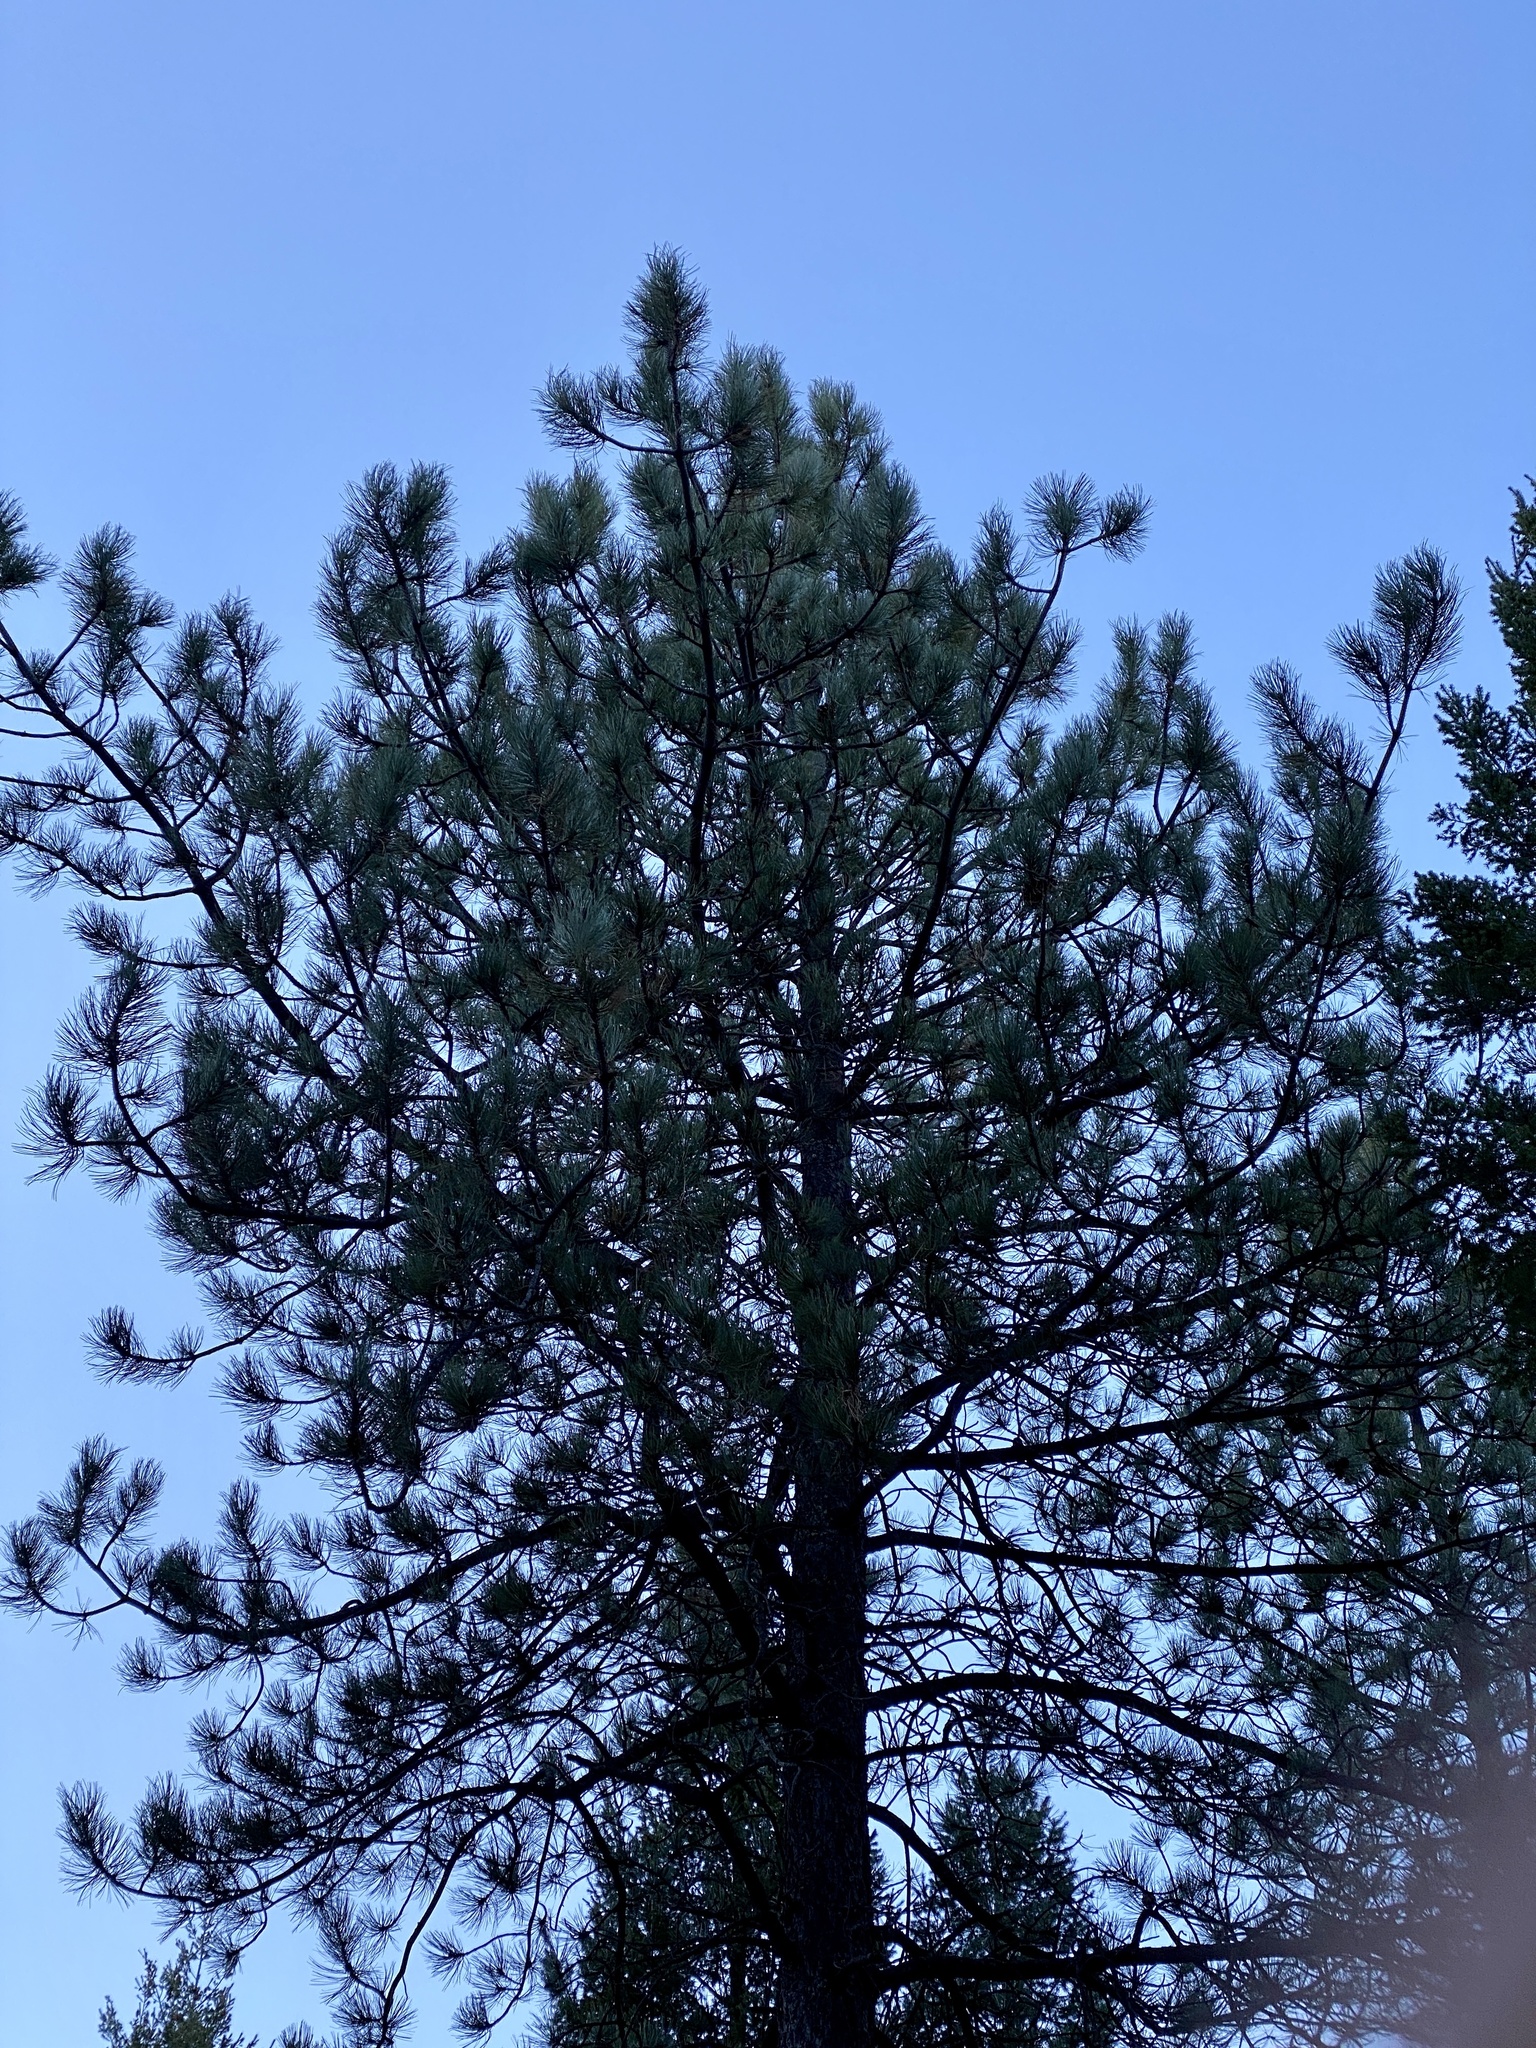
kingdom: Plantae
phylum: Tracheophyta
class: Pinopsida
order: Pinales
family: Pinaceae
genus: Pinus
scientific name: Pinus ponderosa
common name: Western yellow-pine
